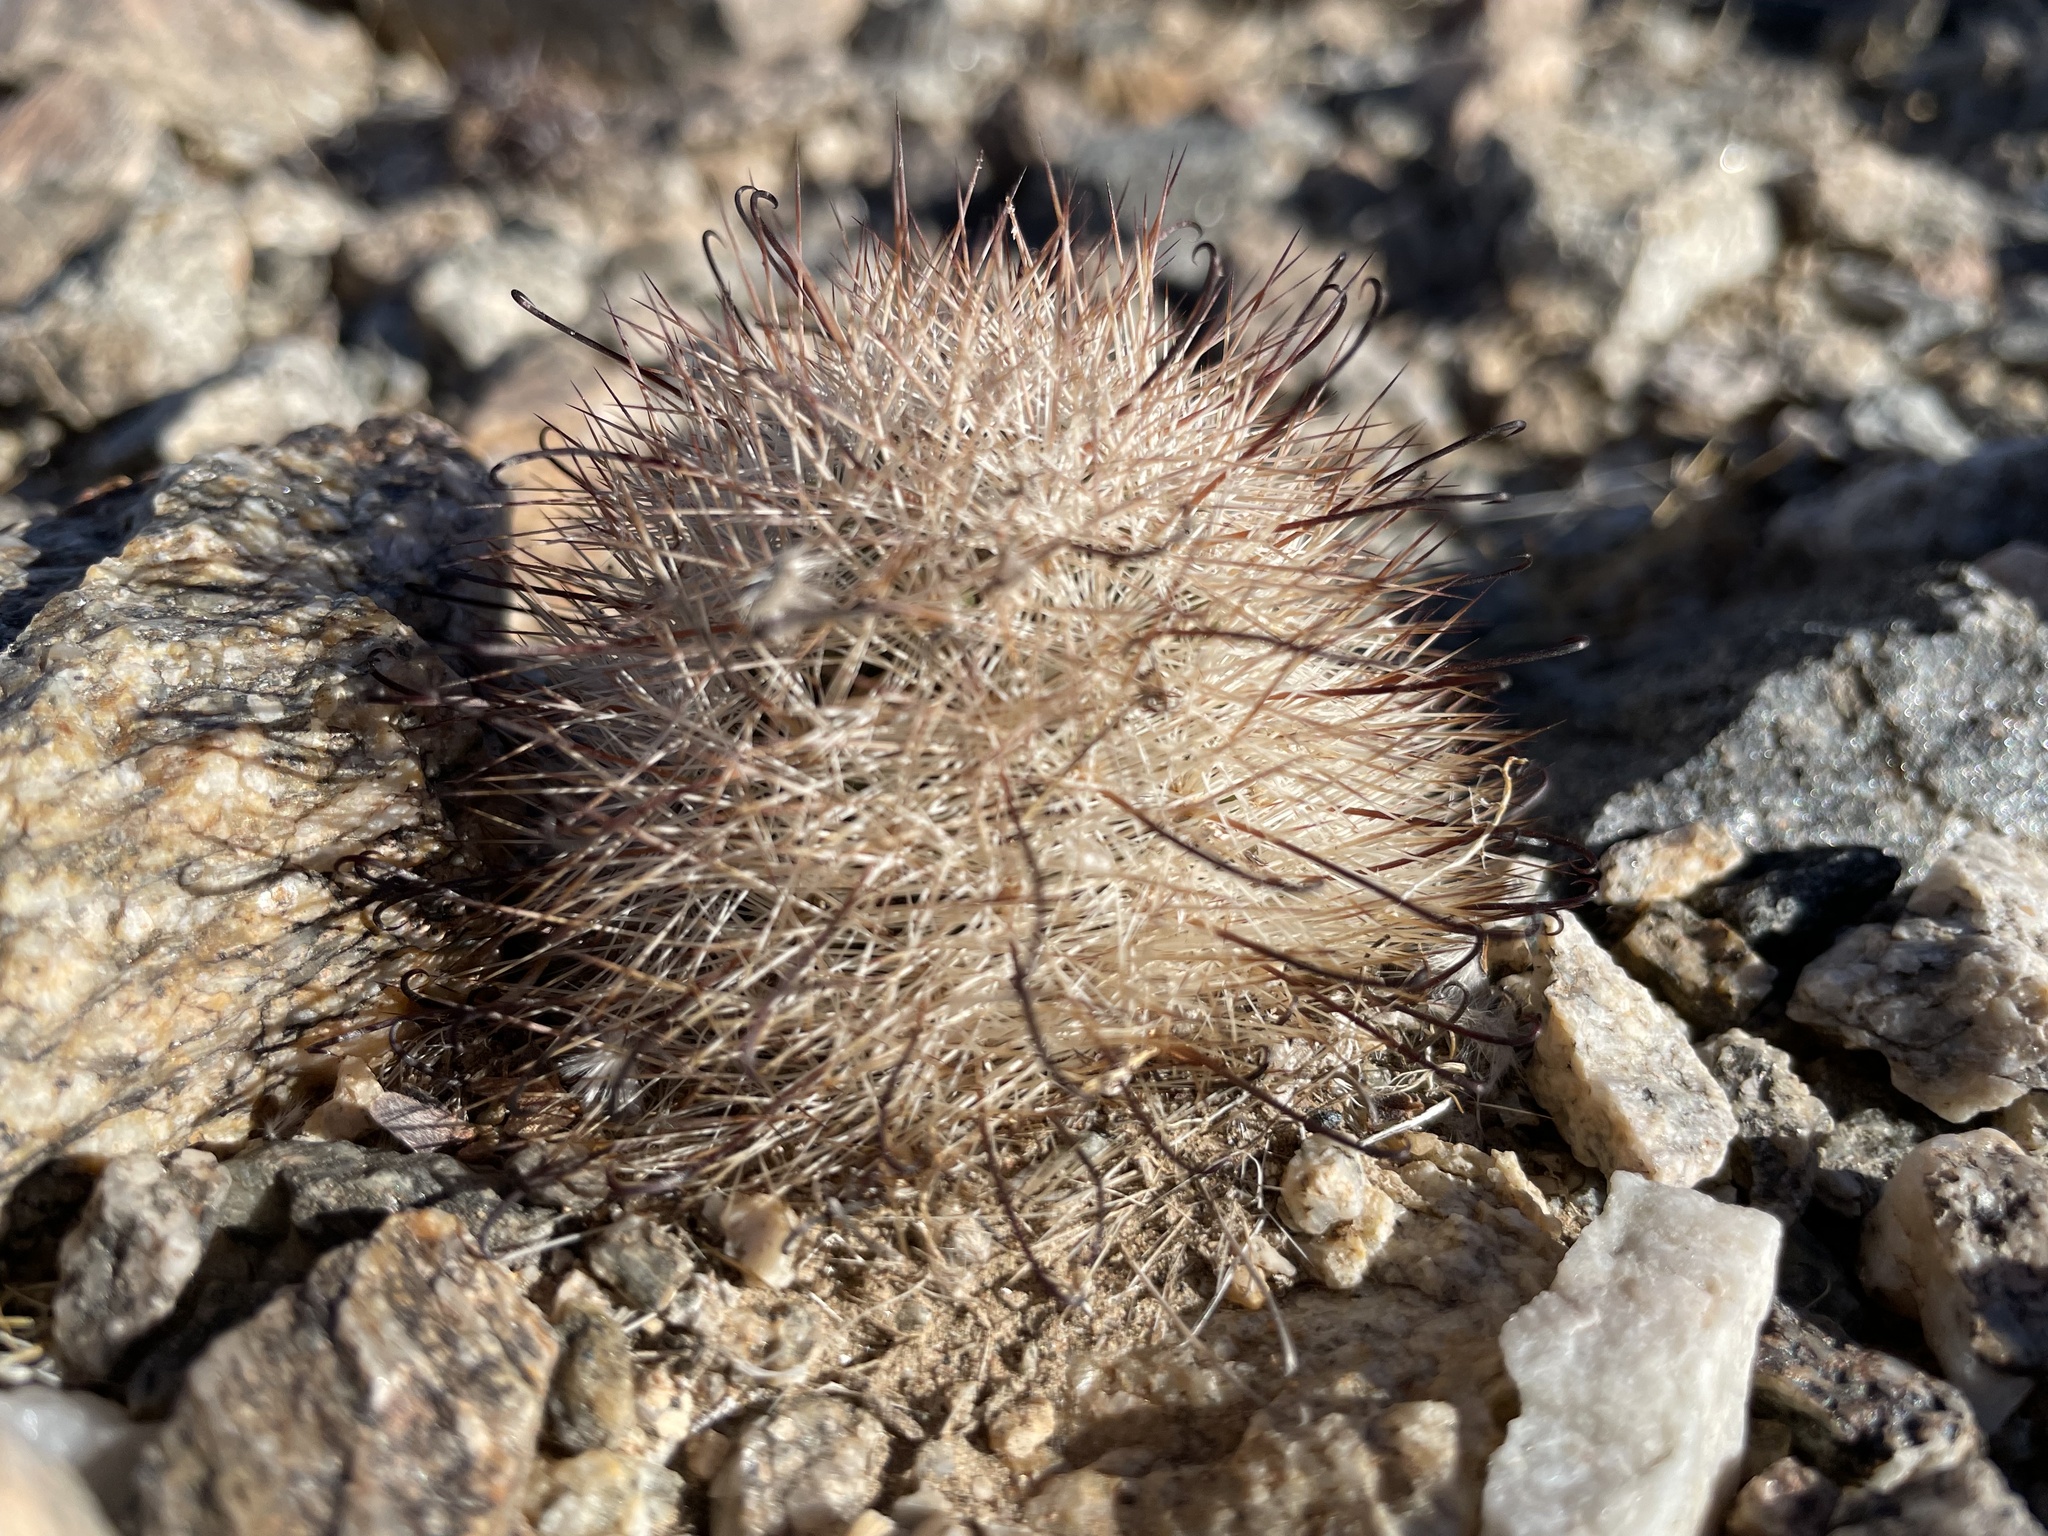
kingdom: Plantae
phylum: Tracheophyta
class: Magnoliopsida
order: Caryophyllales
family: Cactaceae
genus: Cochemiea
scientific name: Cochemiea tetrancistra
